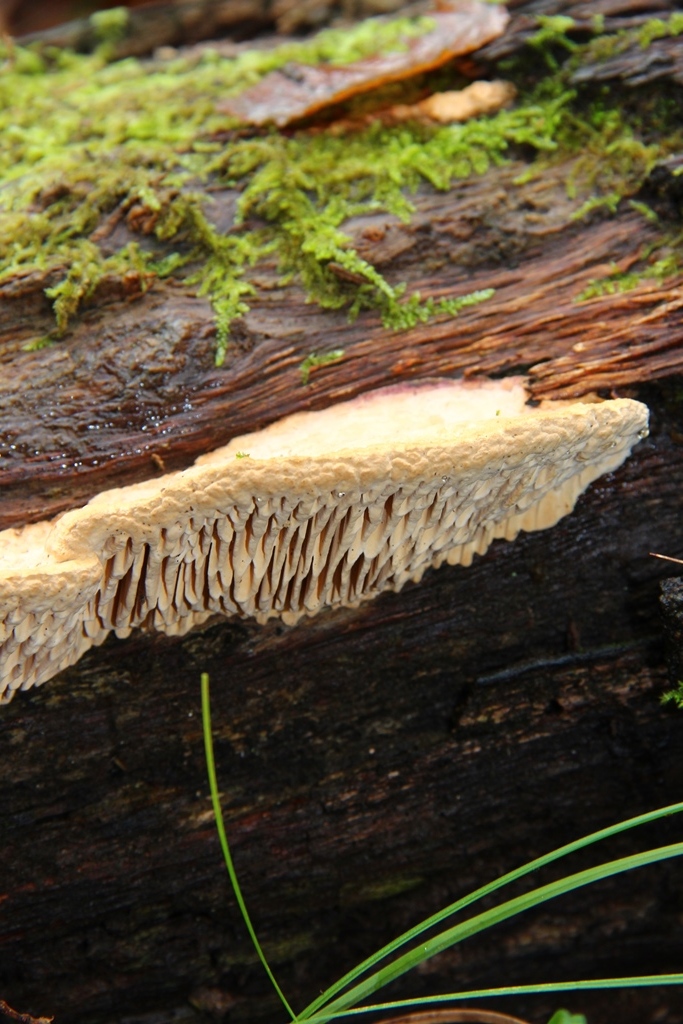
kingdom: Fungi
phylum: Basidiomycota
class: Agaricomycetes
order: Polyporales
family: Fomitopsidaceae
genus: Fomitopsis
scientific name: Fomitopsis
